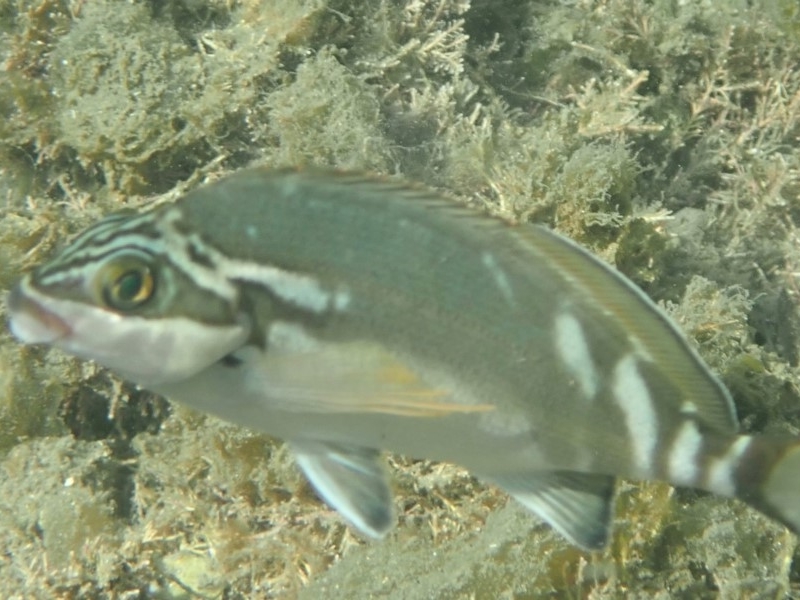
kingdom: Animalia
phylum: Chordata
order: Perciformes
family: Latridae
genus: Morwong
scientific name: Morwong fuscus
